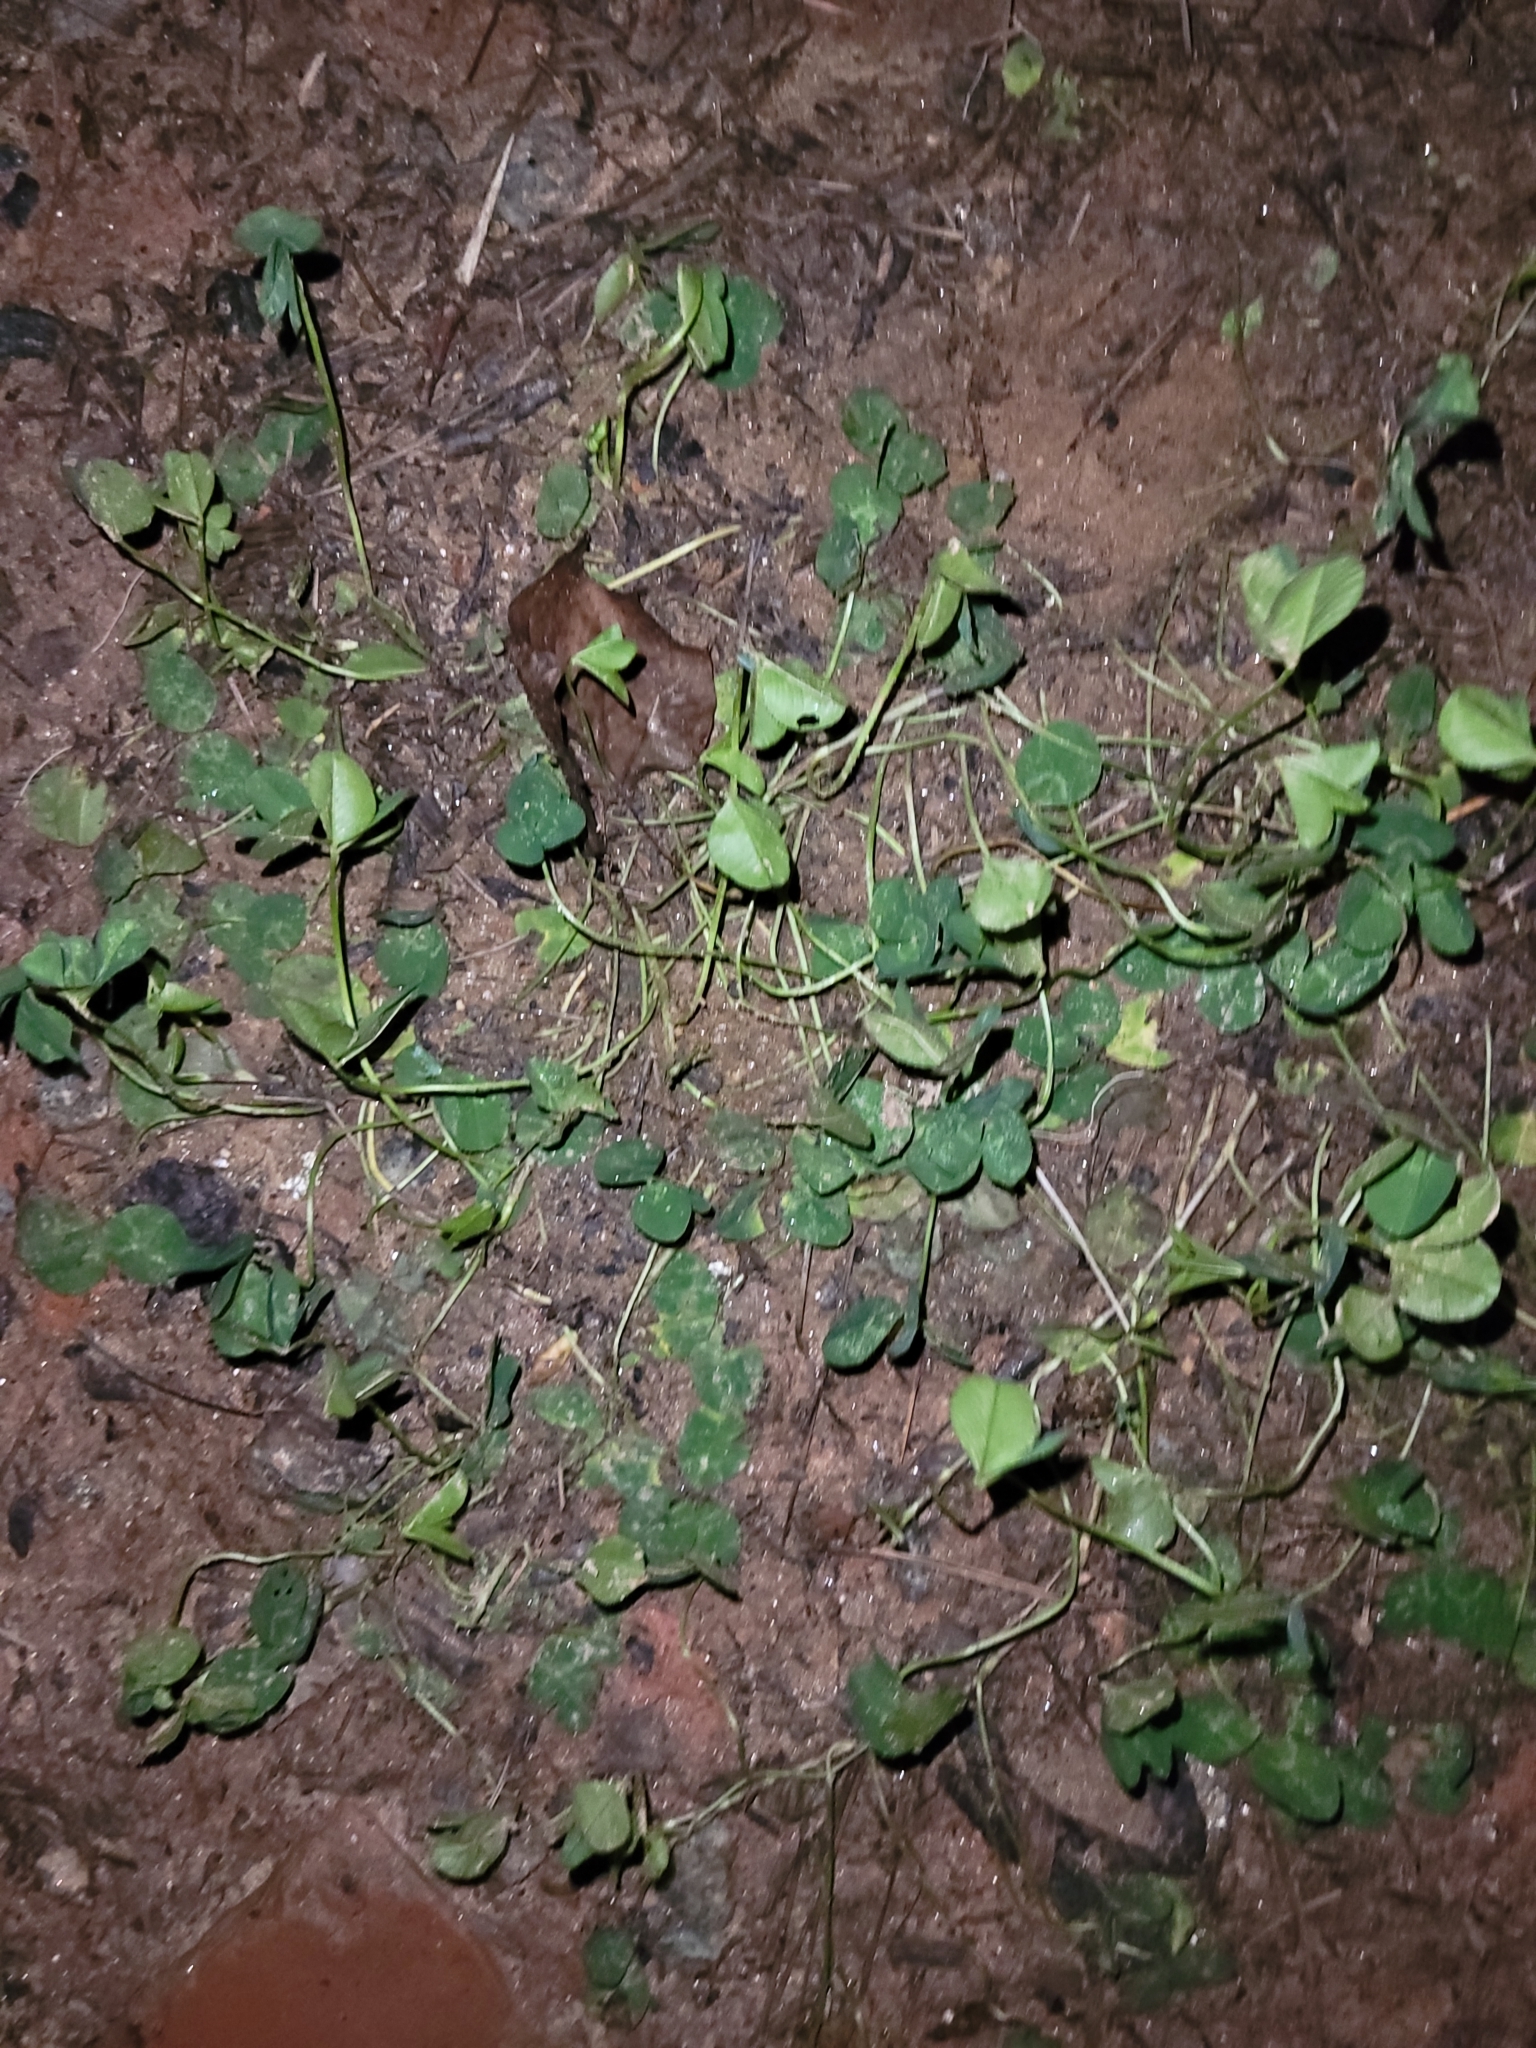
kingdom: Plantae
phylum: Tracheophyta
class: Magnoliopsida
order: Fabales
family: Fabaceae
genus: Trifolium
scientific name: Trifolium repens
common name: White clover
